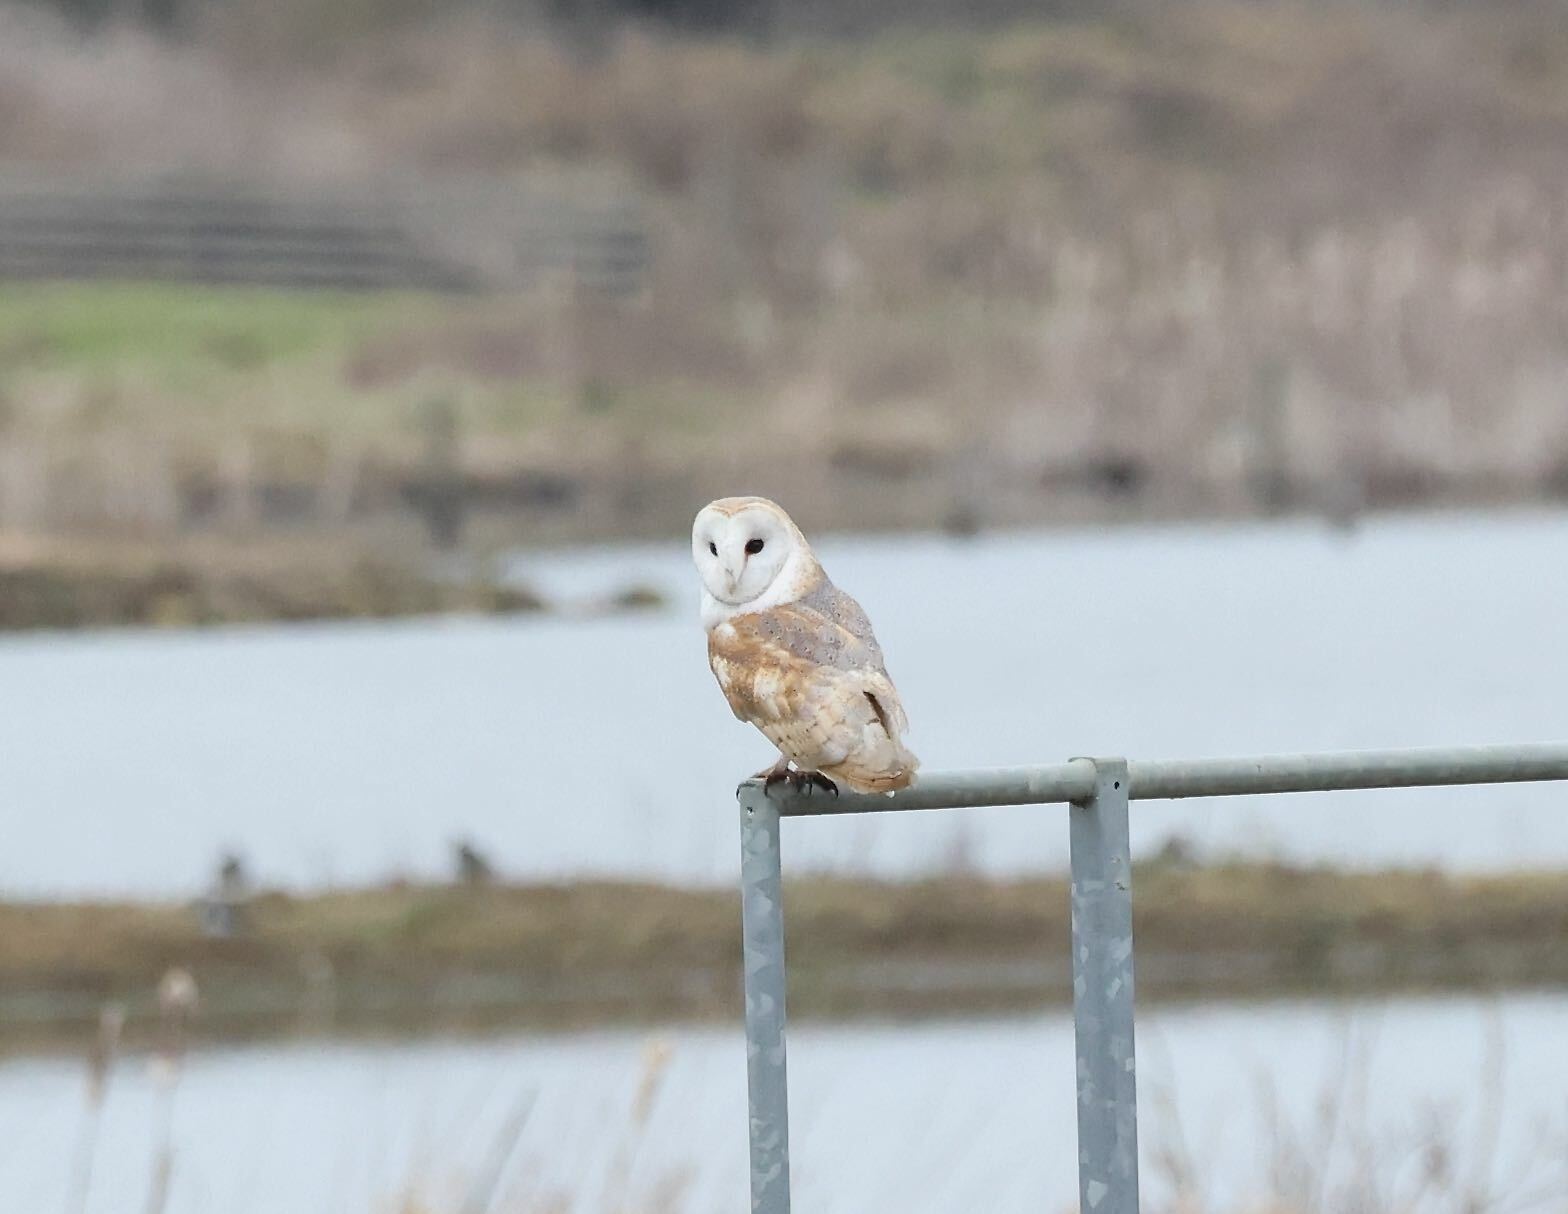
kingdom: Animalia
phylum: Chordata
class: Aves
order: Strigiformes
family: Tytonidae
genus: Tyto
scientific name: Tyto alba
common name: Barn owl
